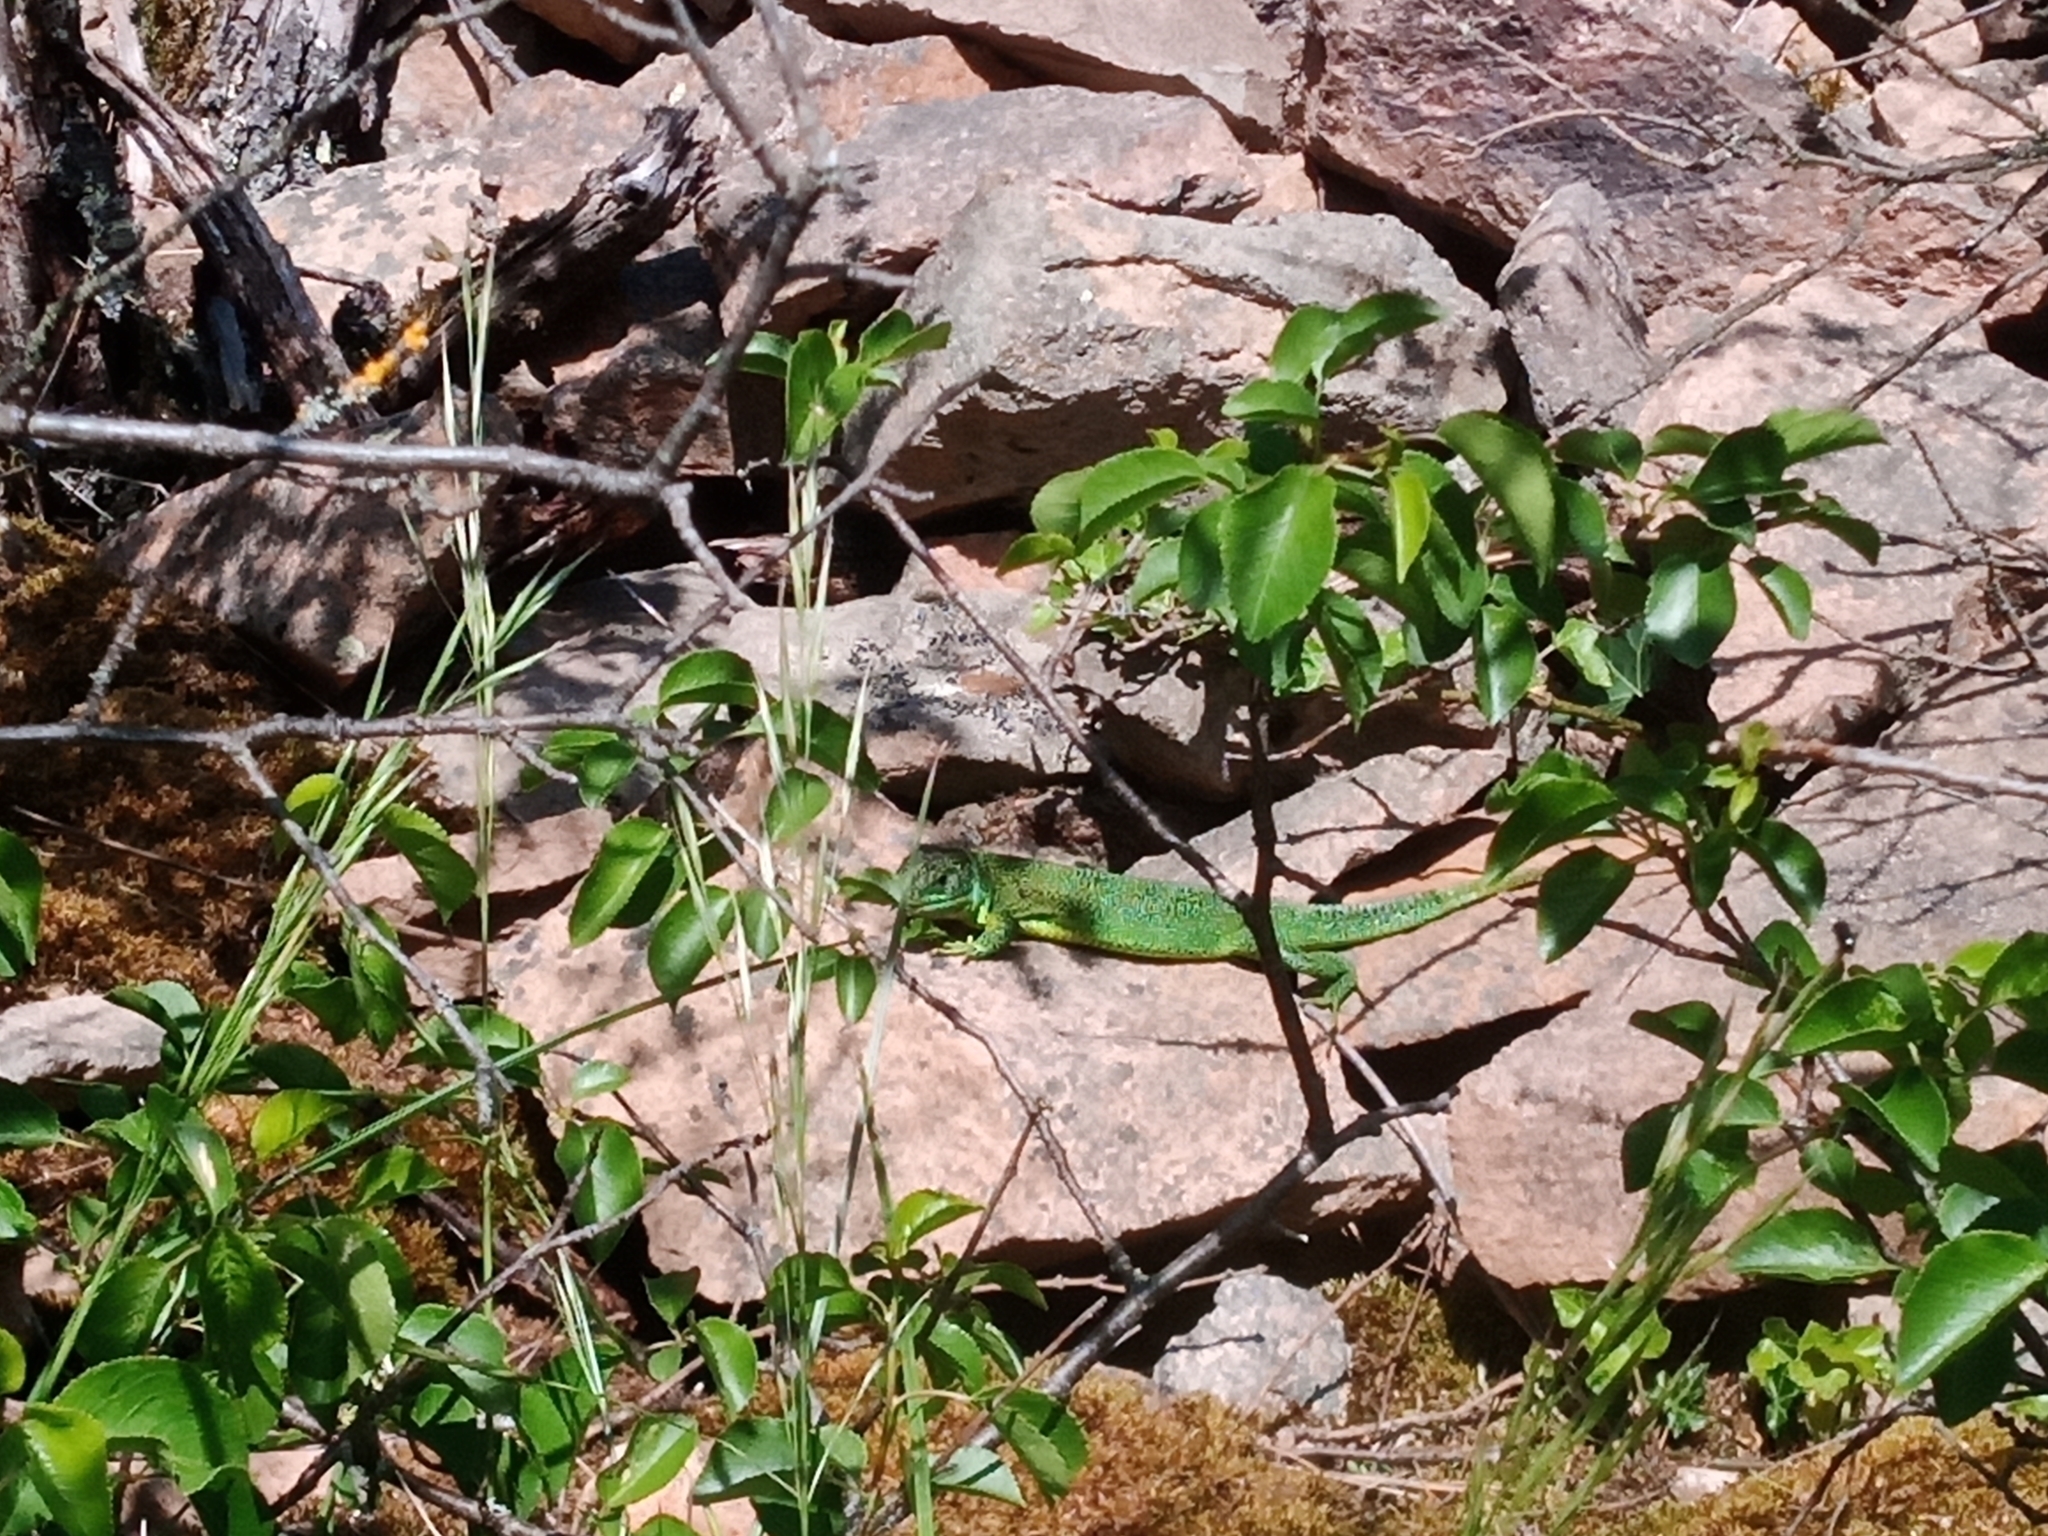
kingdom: Animalia
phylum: Chordata
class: Squamata
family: Lacertidae
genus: Lacerta
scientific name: Lacerta bilineata
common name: Western green lizard
